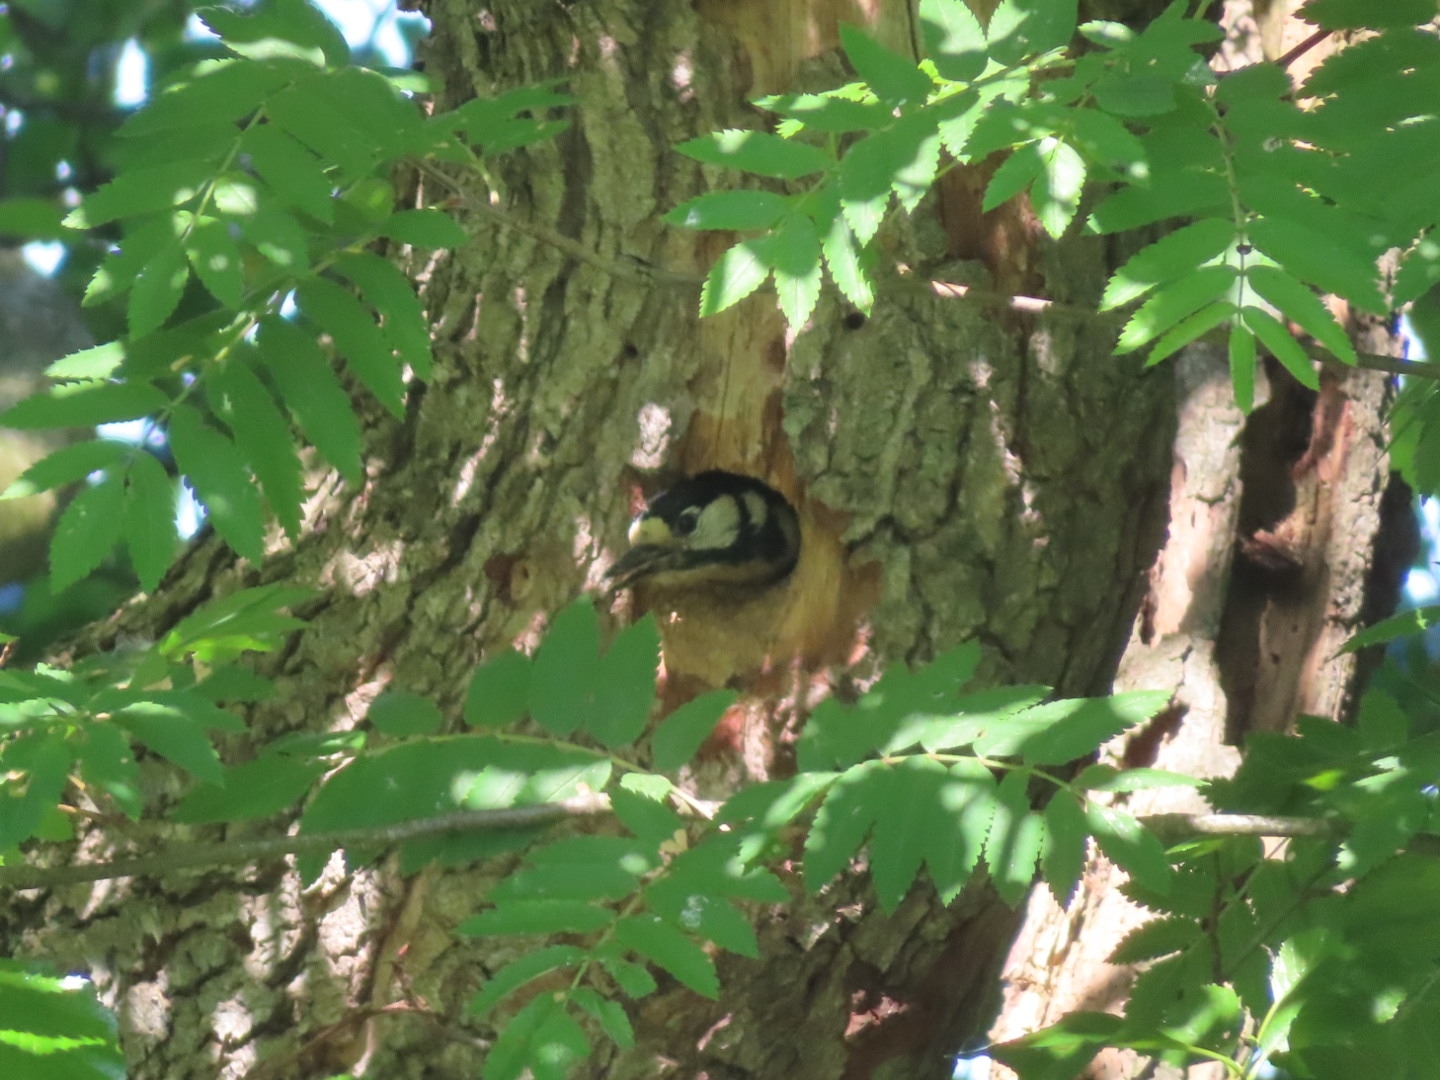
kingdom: Animalia
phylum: Chordata
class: Aves
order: Piciformes
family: Picidae
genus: Dendrocopos
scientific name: Dendrocopos major
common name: Great spotted woodpecker
